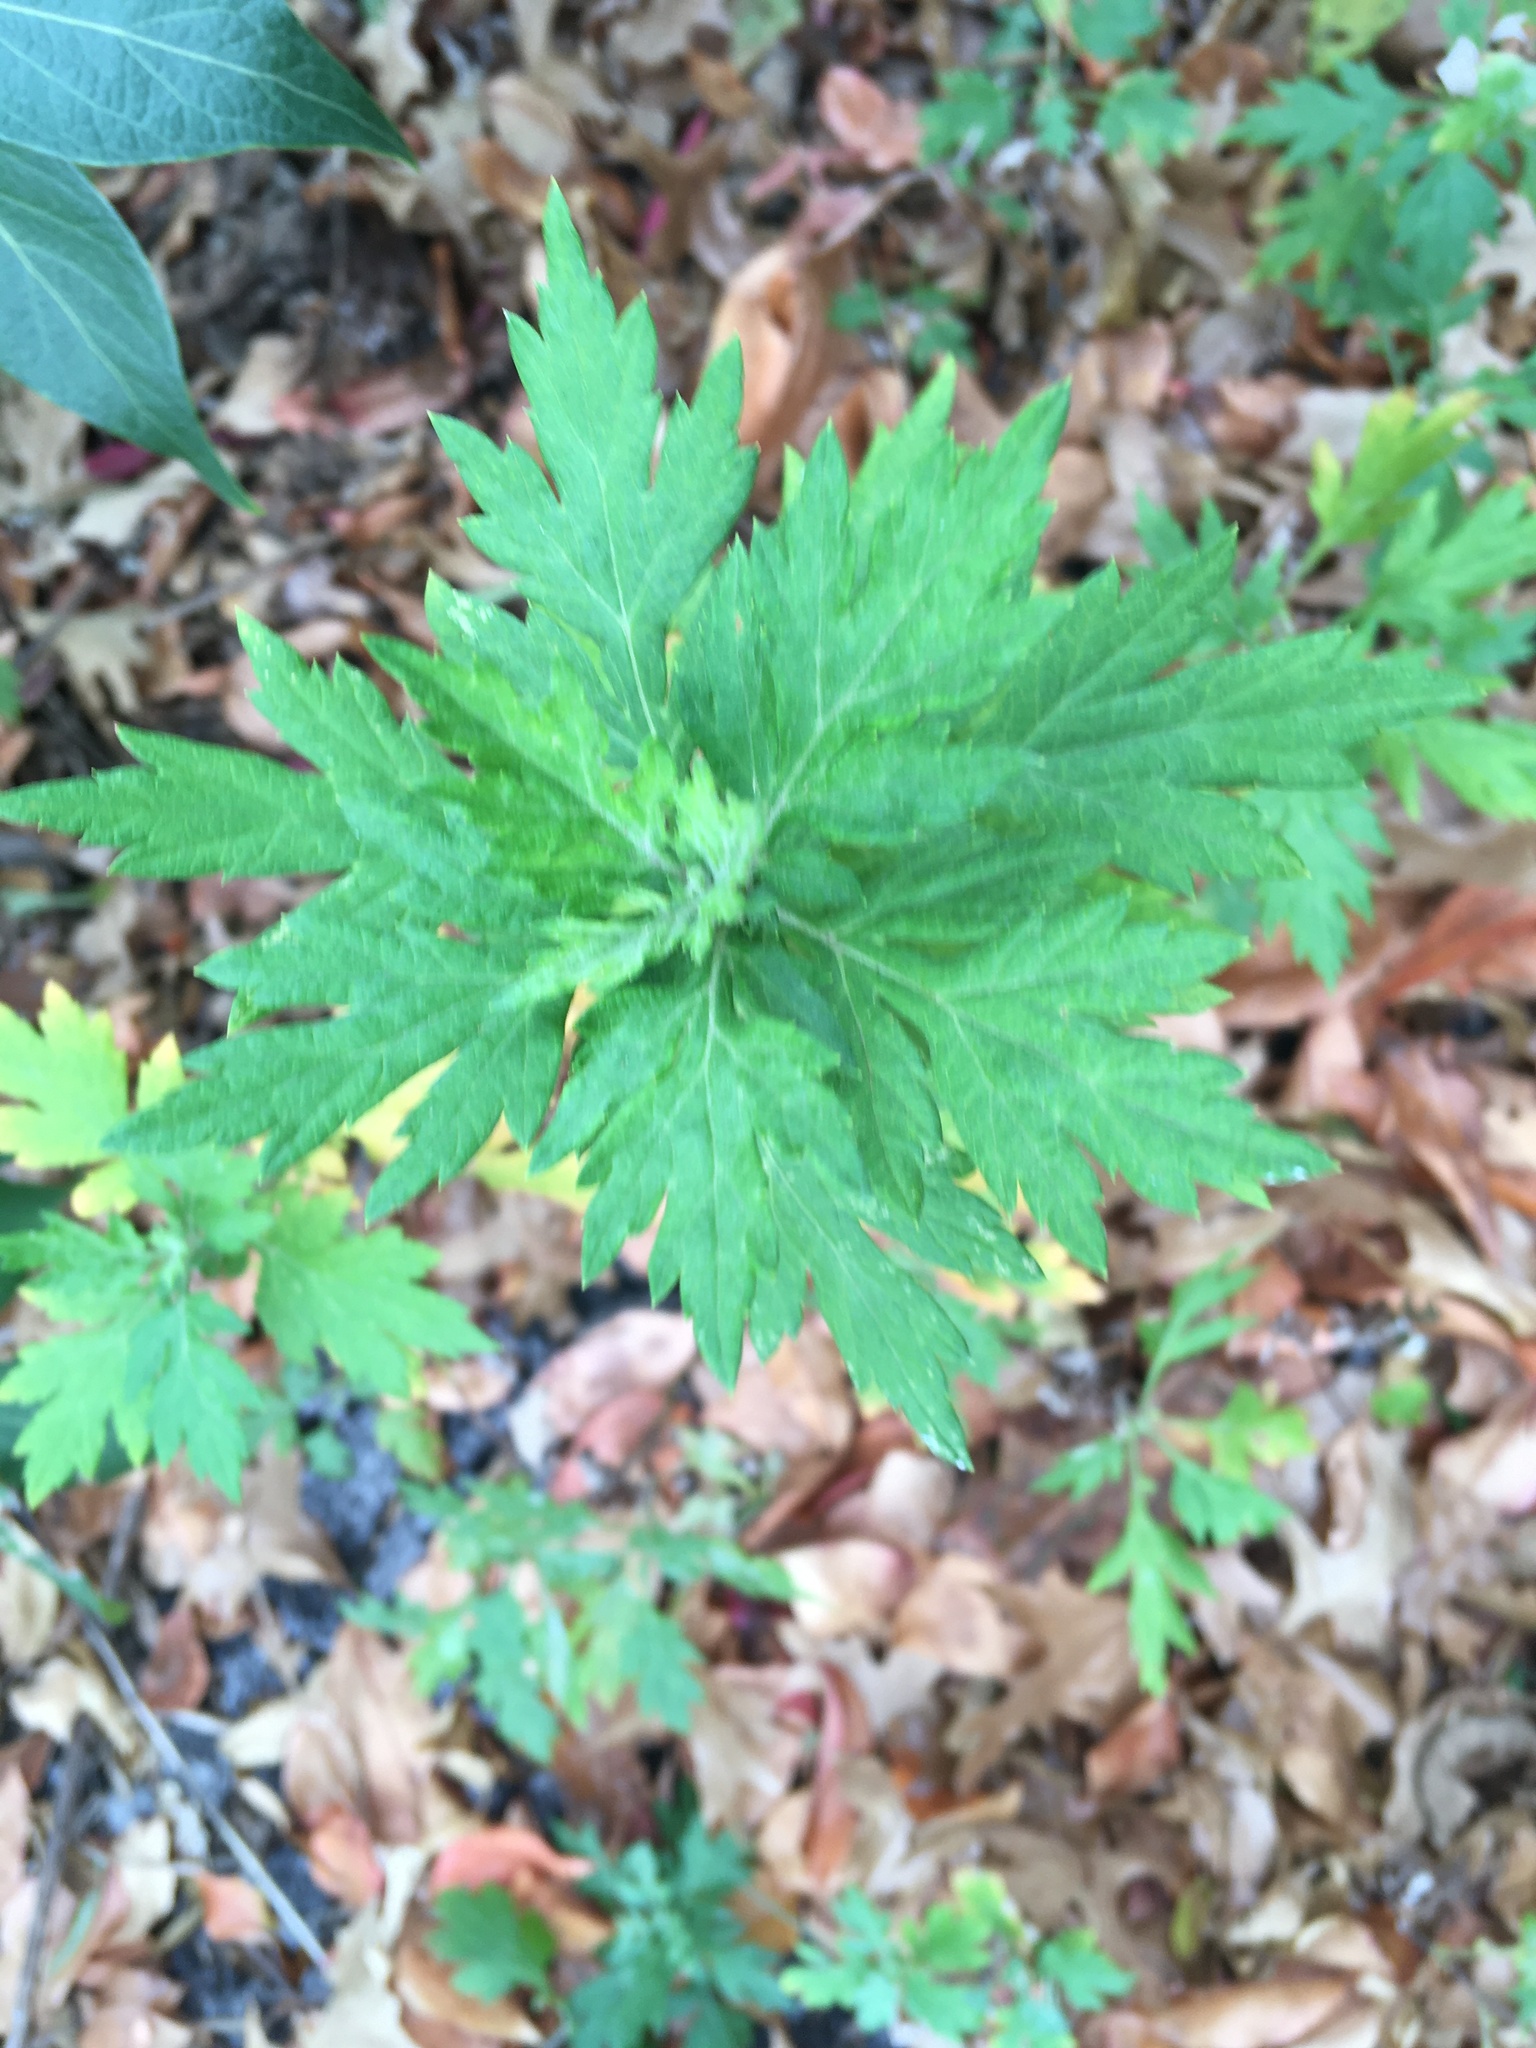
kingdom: Plantae
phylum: Tracheophyta
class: Magnoliopsida
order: Asterales
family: Asteraceae
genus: Artemisia
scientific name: Artemisia vulgaris
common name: Mugwort
